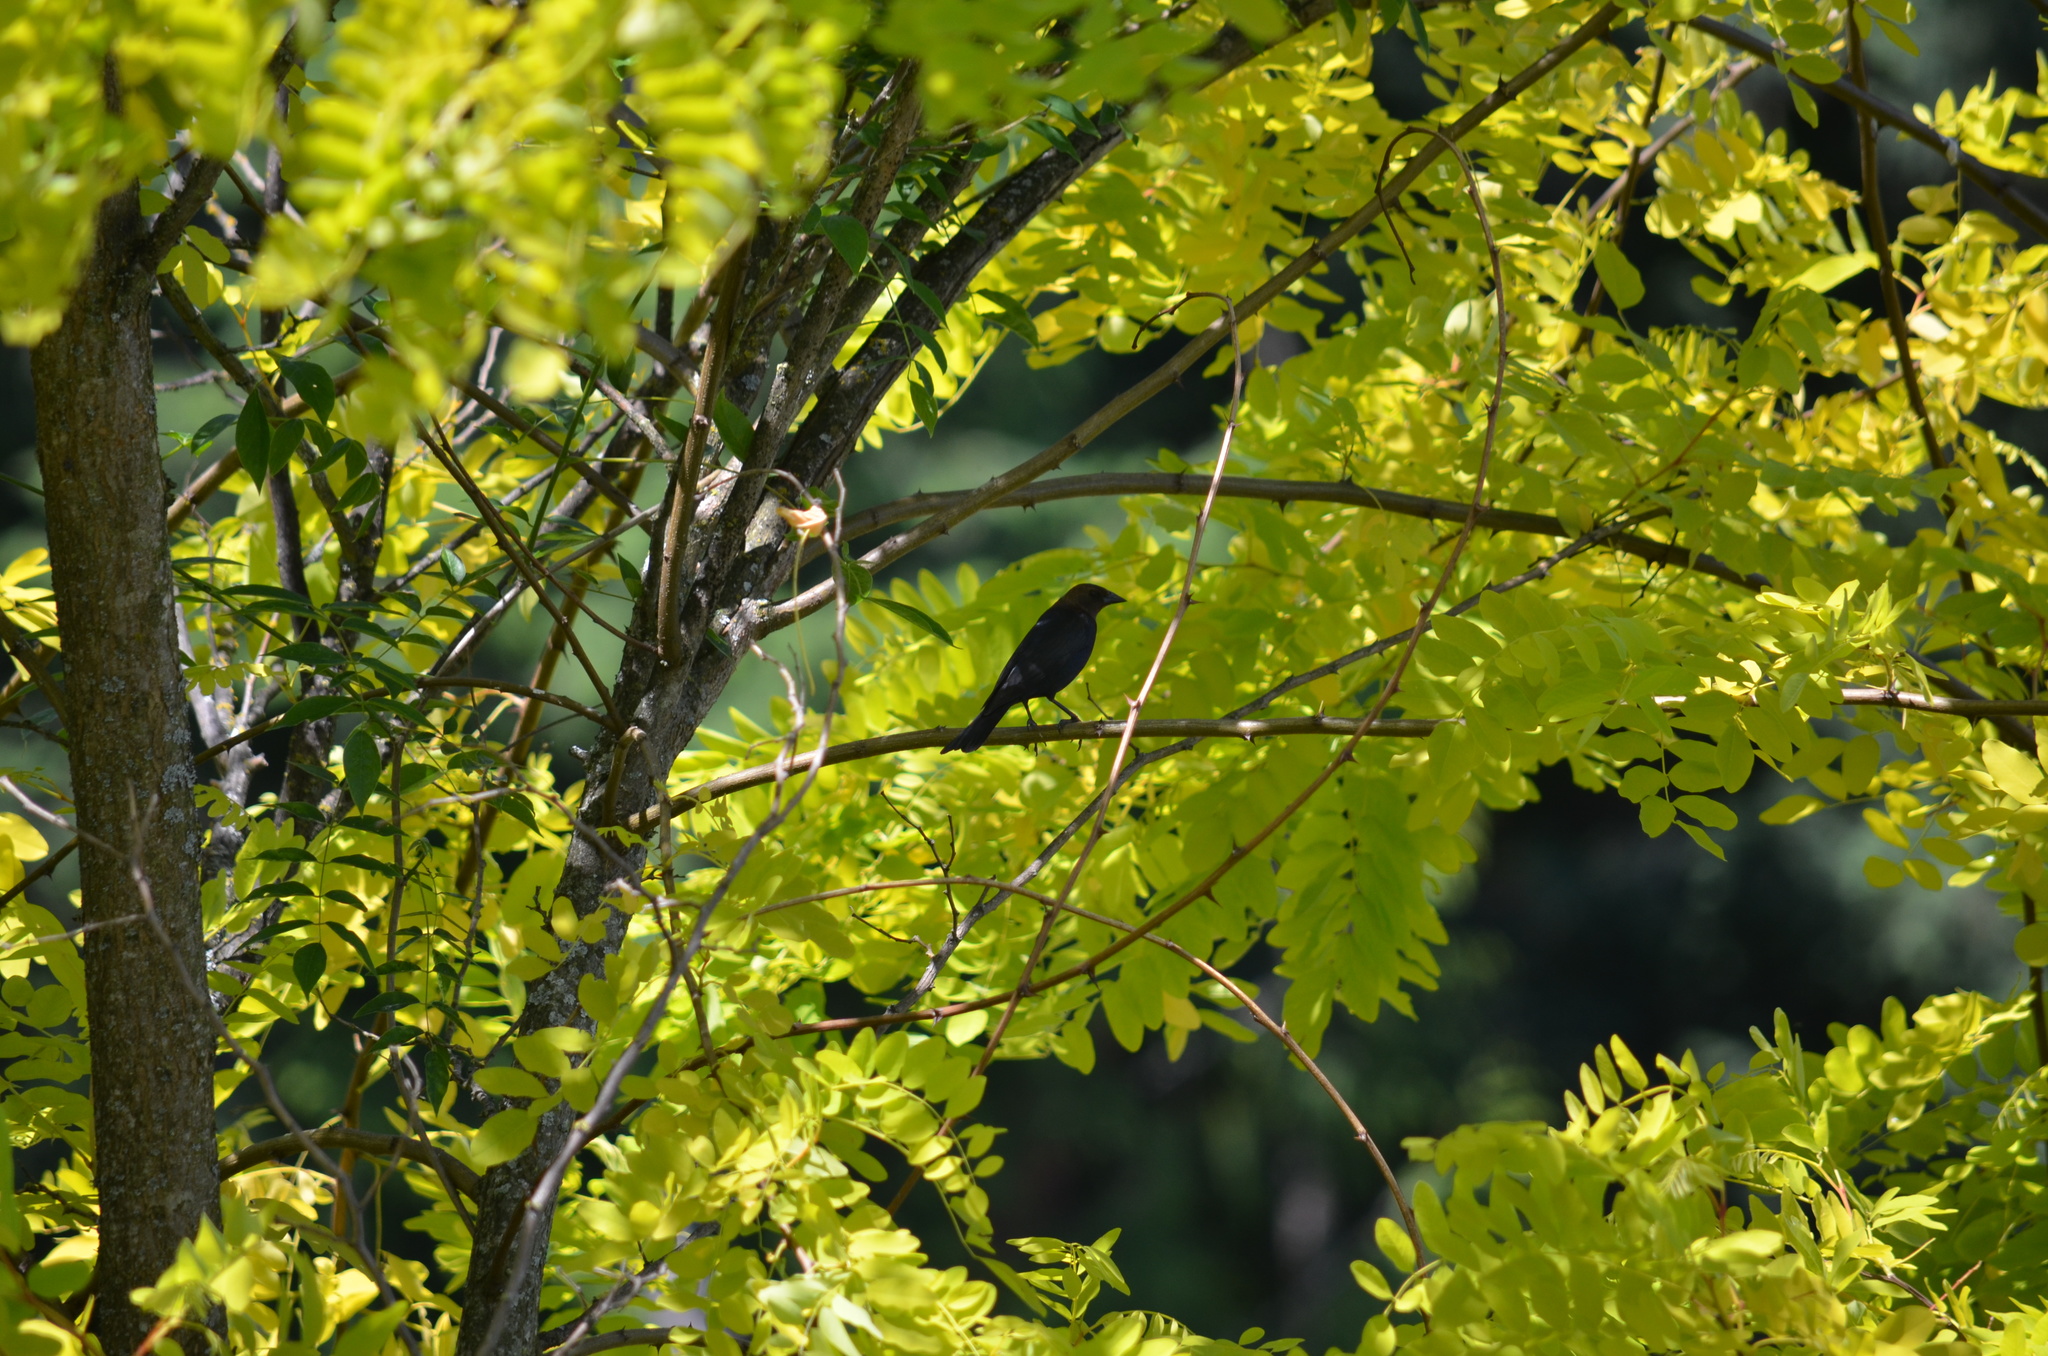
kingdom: Animalia
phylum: Chordata
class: Aves
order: Passeriformes
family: Icteridae
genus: Molothrus
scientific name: Molothrus ater
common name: Brown-headed cowbird
